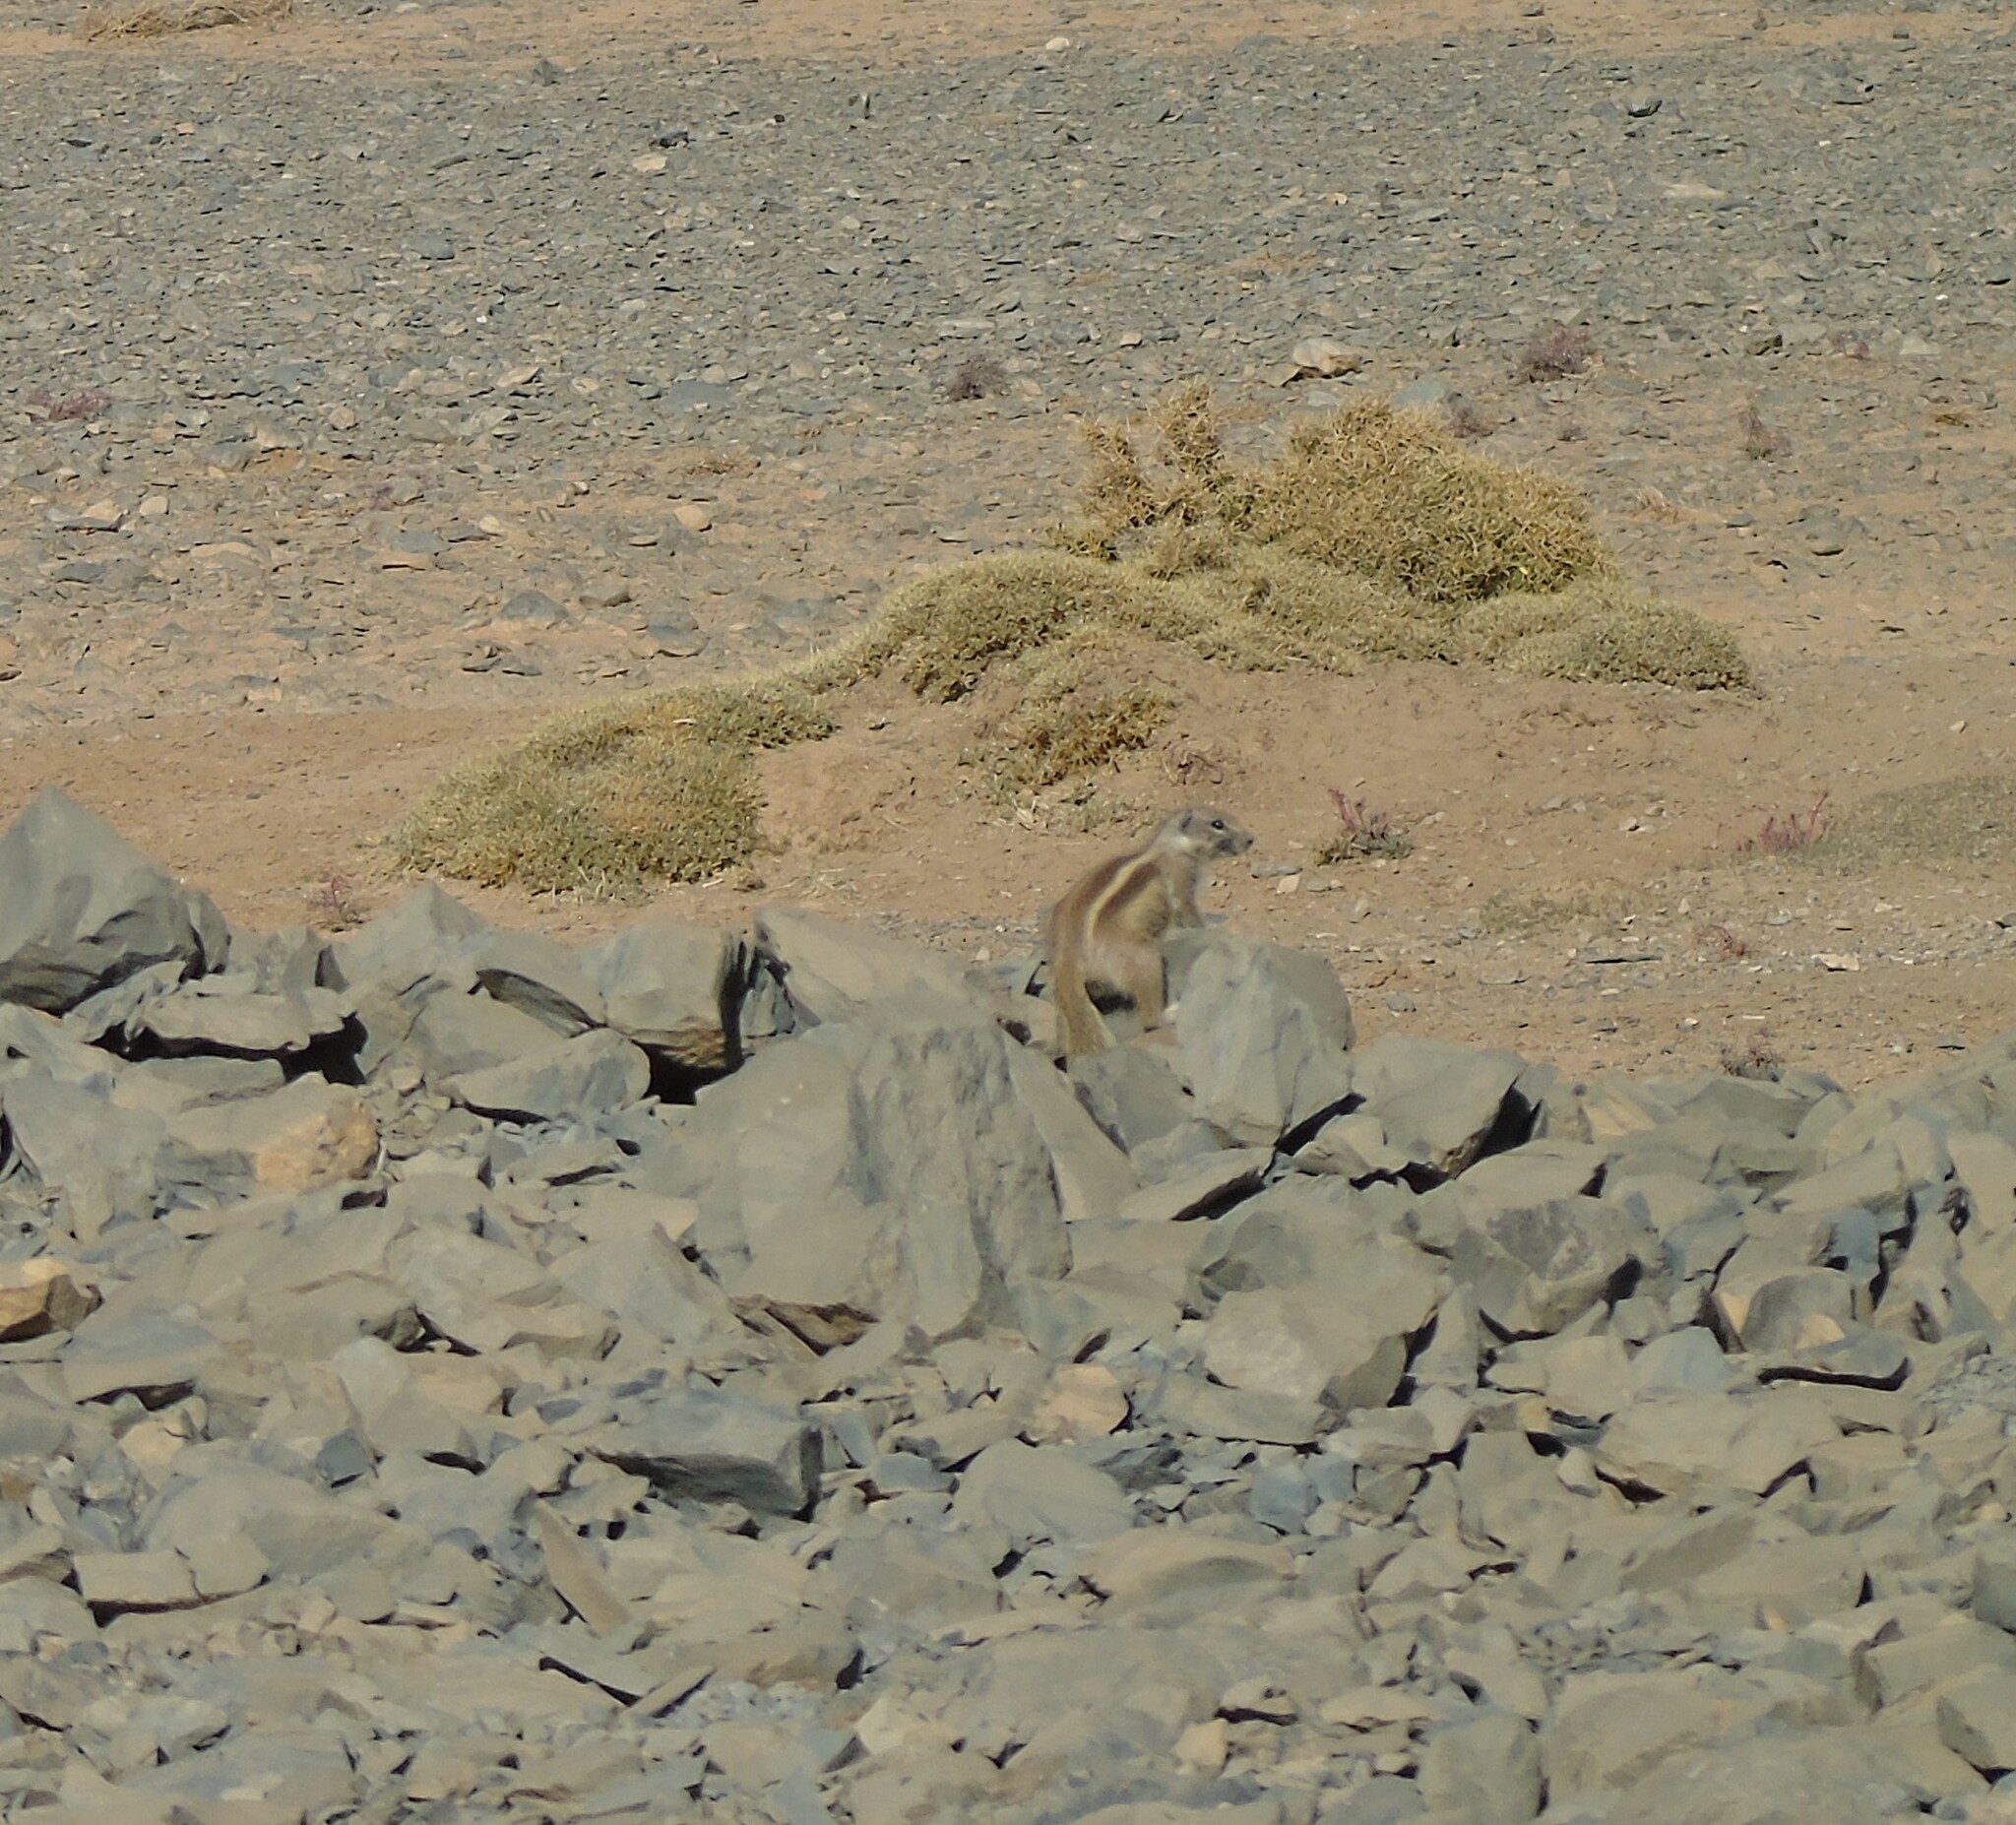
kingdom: Animalia
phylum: Chordata
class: Mammalia
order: Rodentia
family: Sciuridae
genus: Atlantoxerus
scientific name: Atlantoxerus getulus
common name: Barbary ground squirrel
